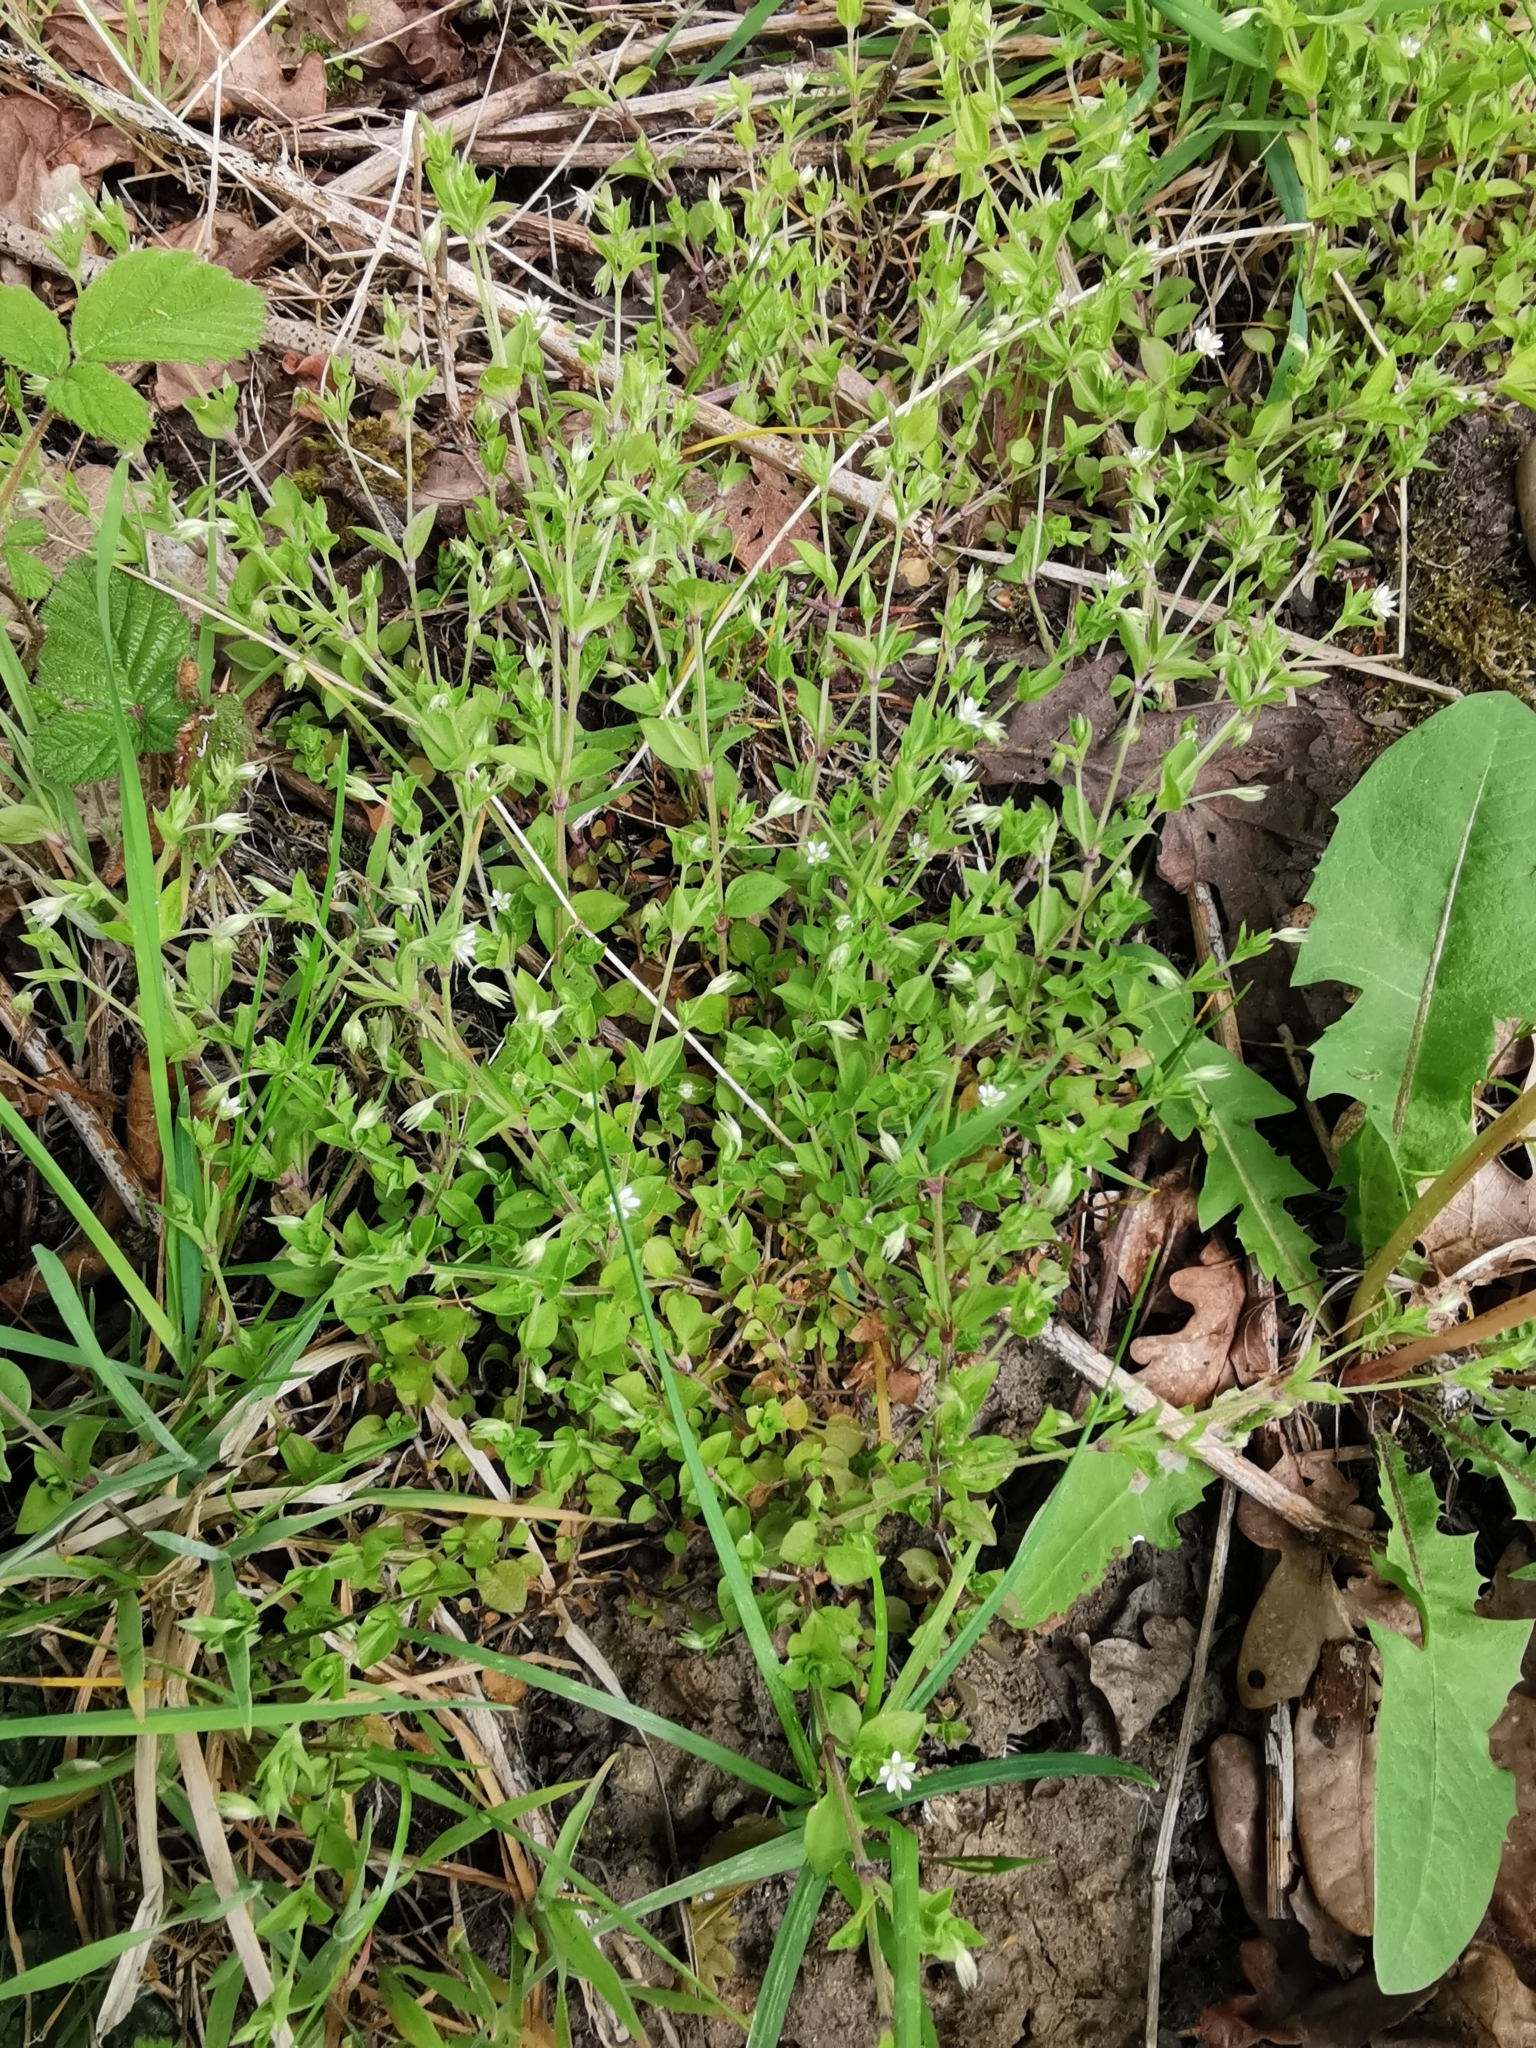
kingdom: Plantae
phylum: Tracheophyta
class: Magnoliopsida
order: Caryophyllales
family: Caryophyllaceae
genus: Moehringia
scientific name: Moehringia trinervia
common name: Three-nerved sandwort
